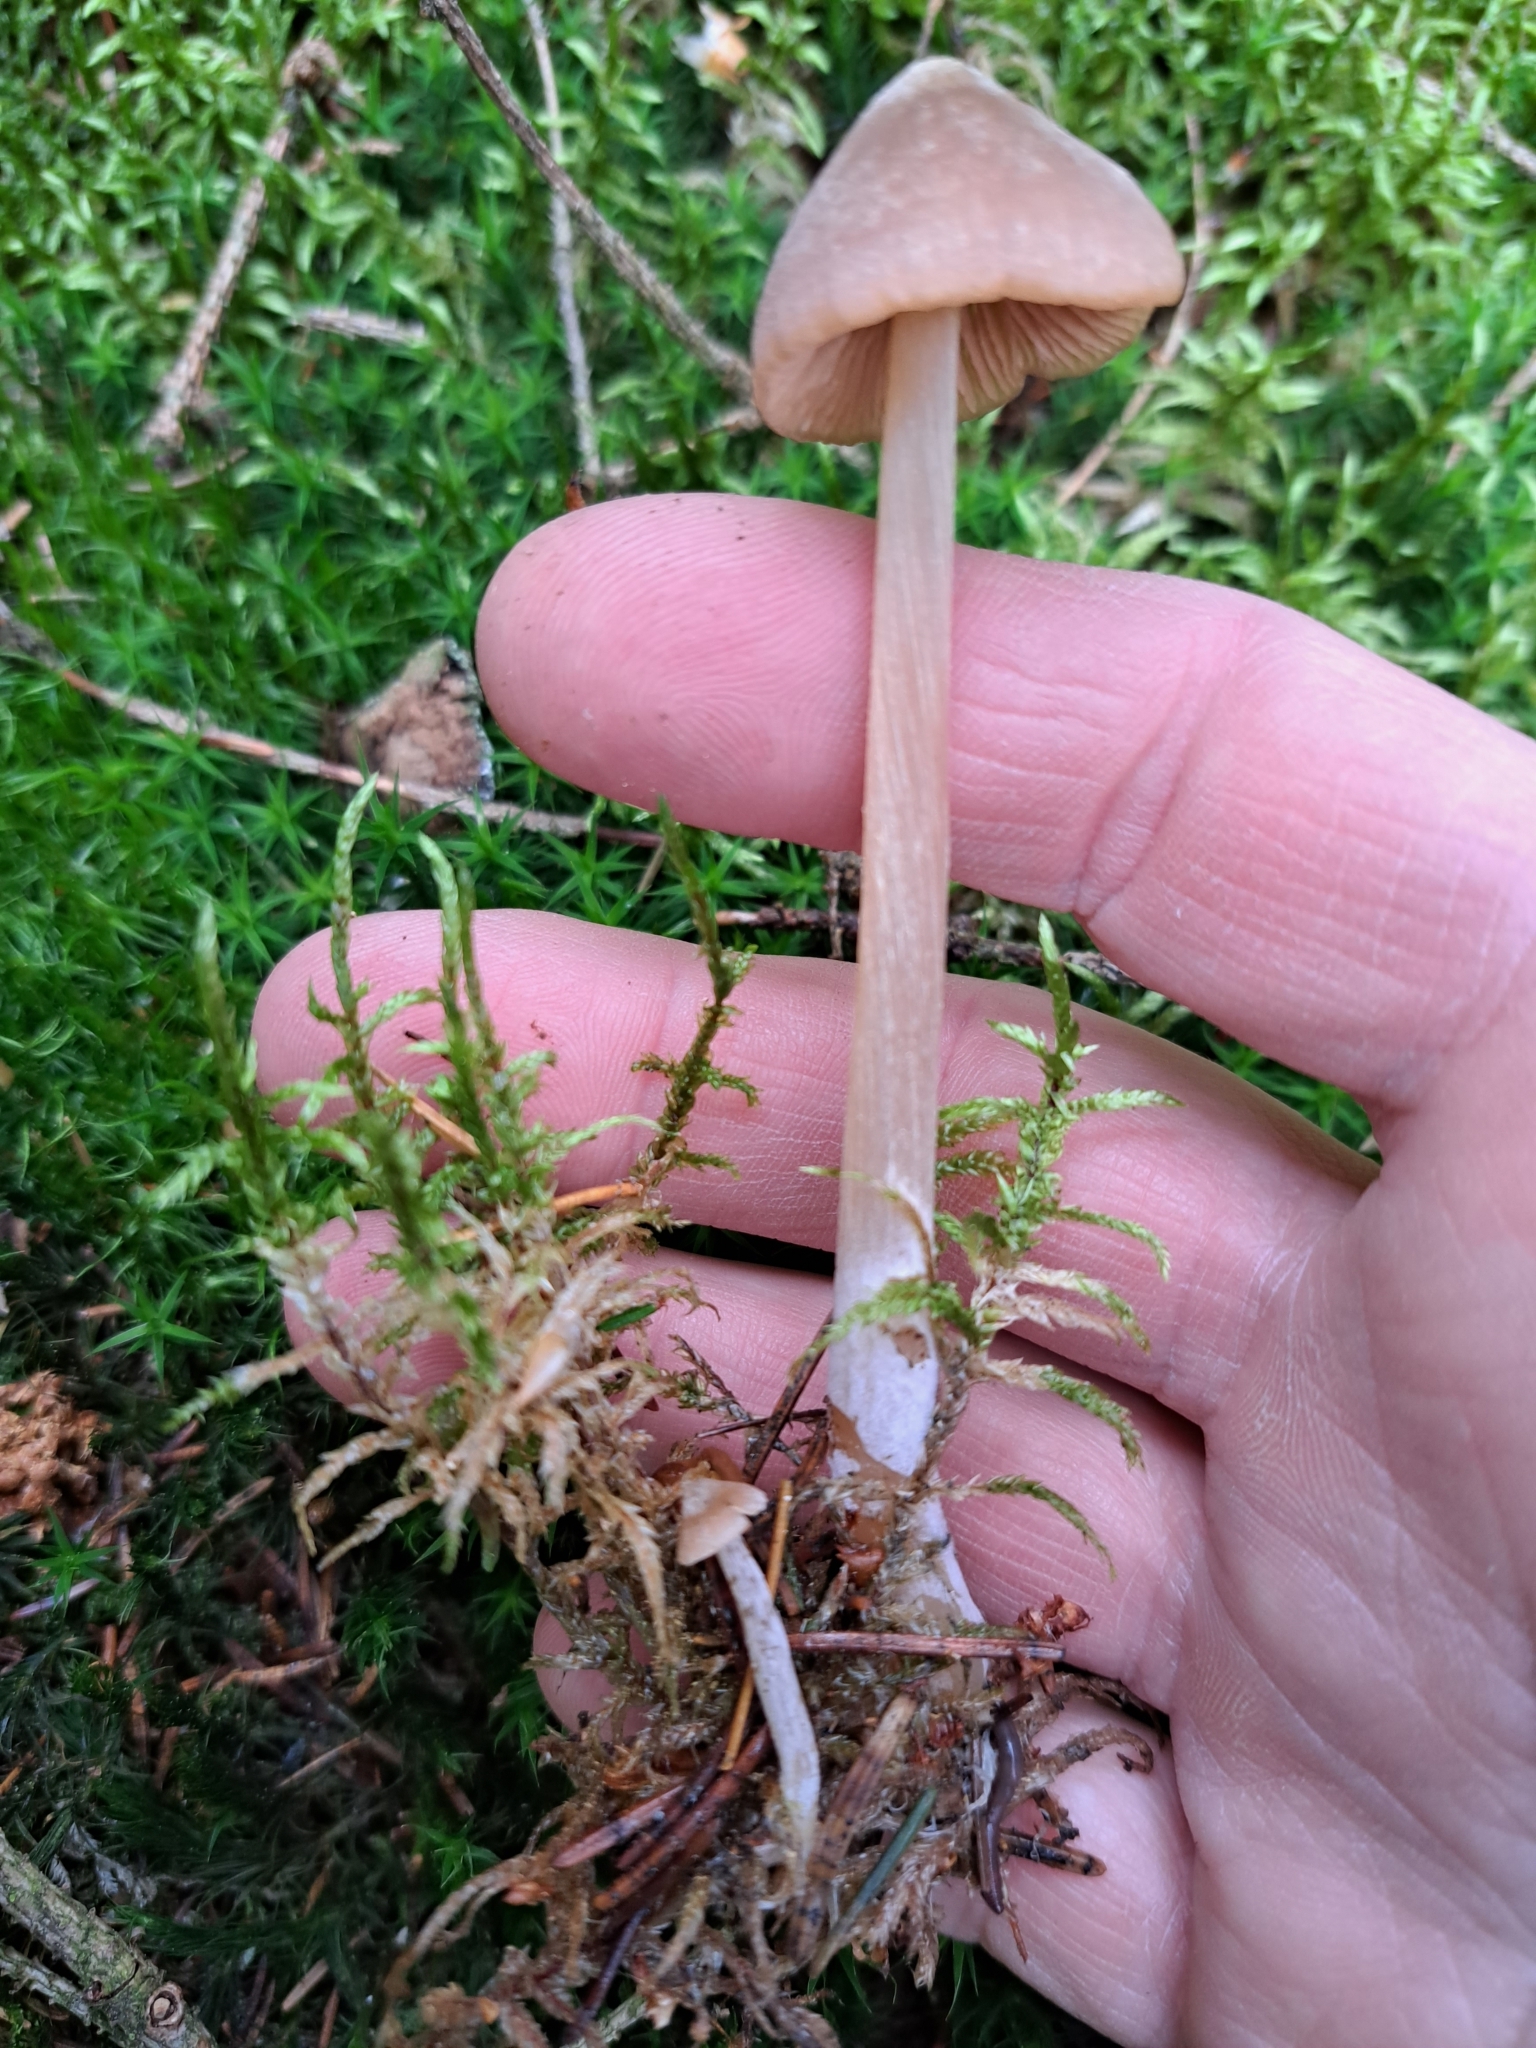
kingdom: Fungi
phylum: Basidiomycota
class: Agaricomycetes
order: Agaricales
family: Entolomataceae
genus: Entoloma
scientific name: Entoloma pallescens
